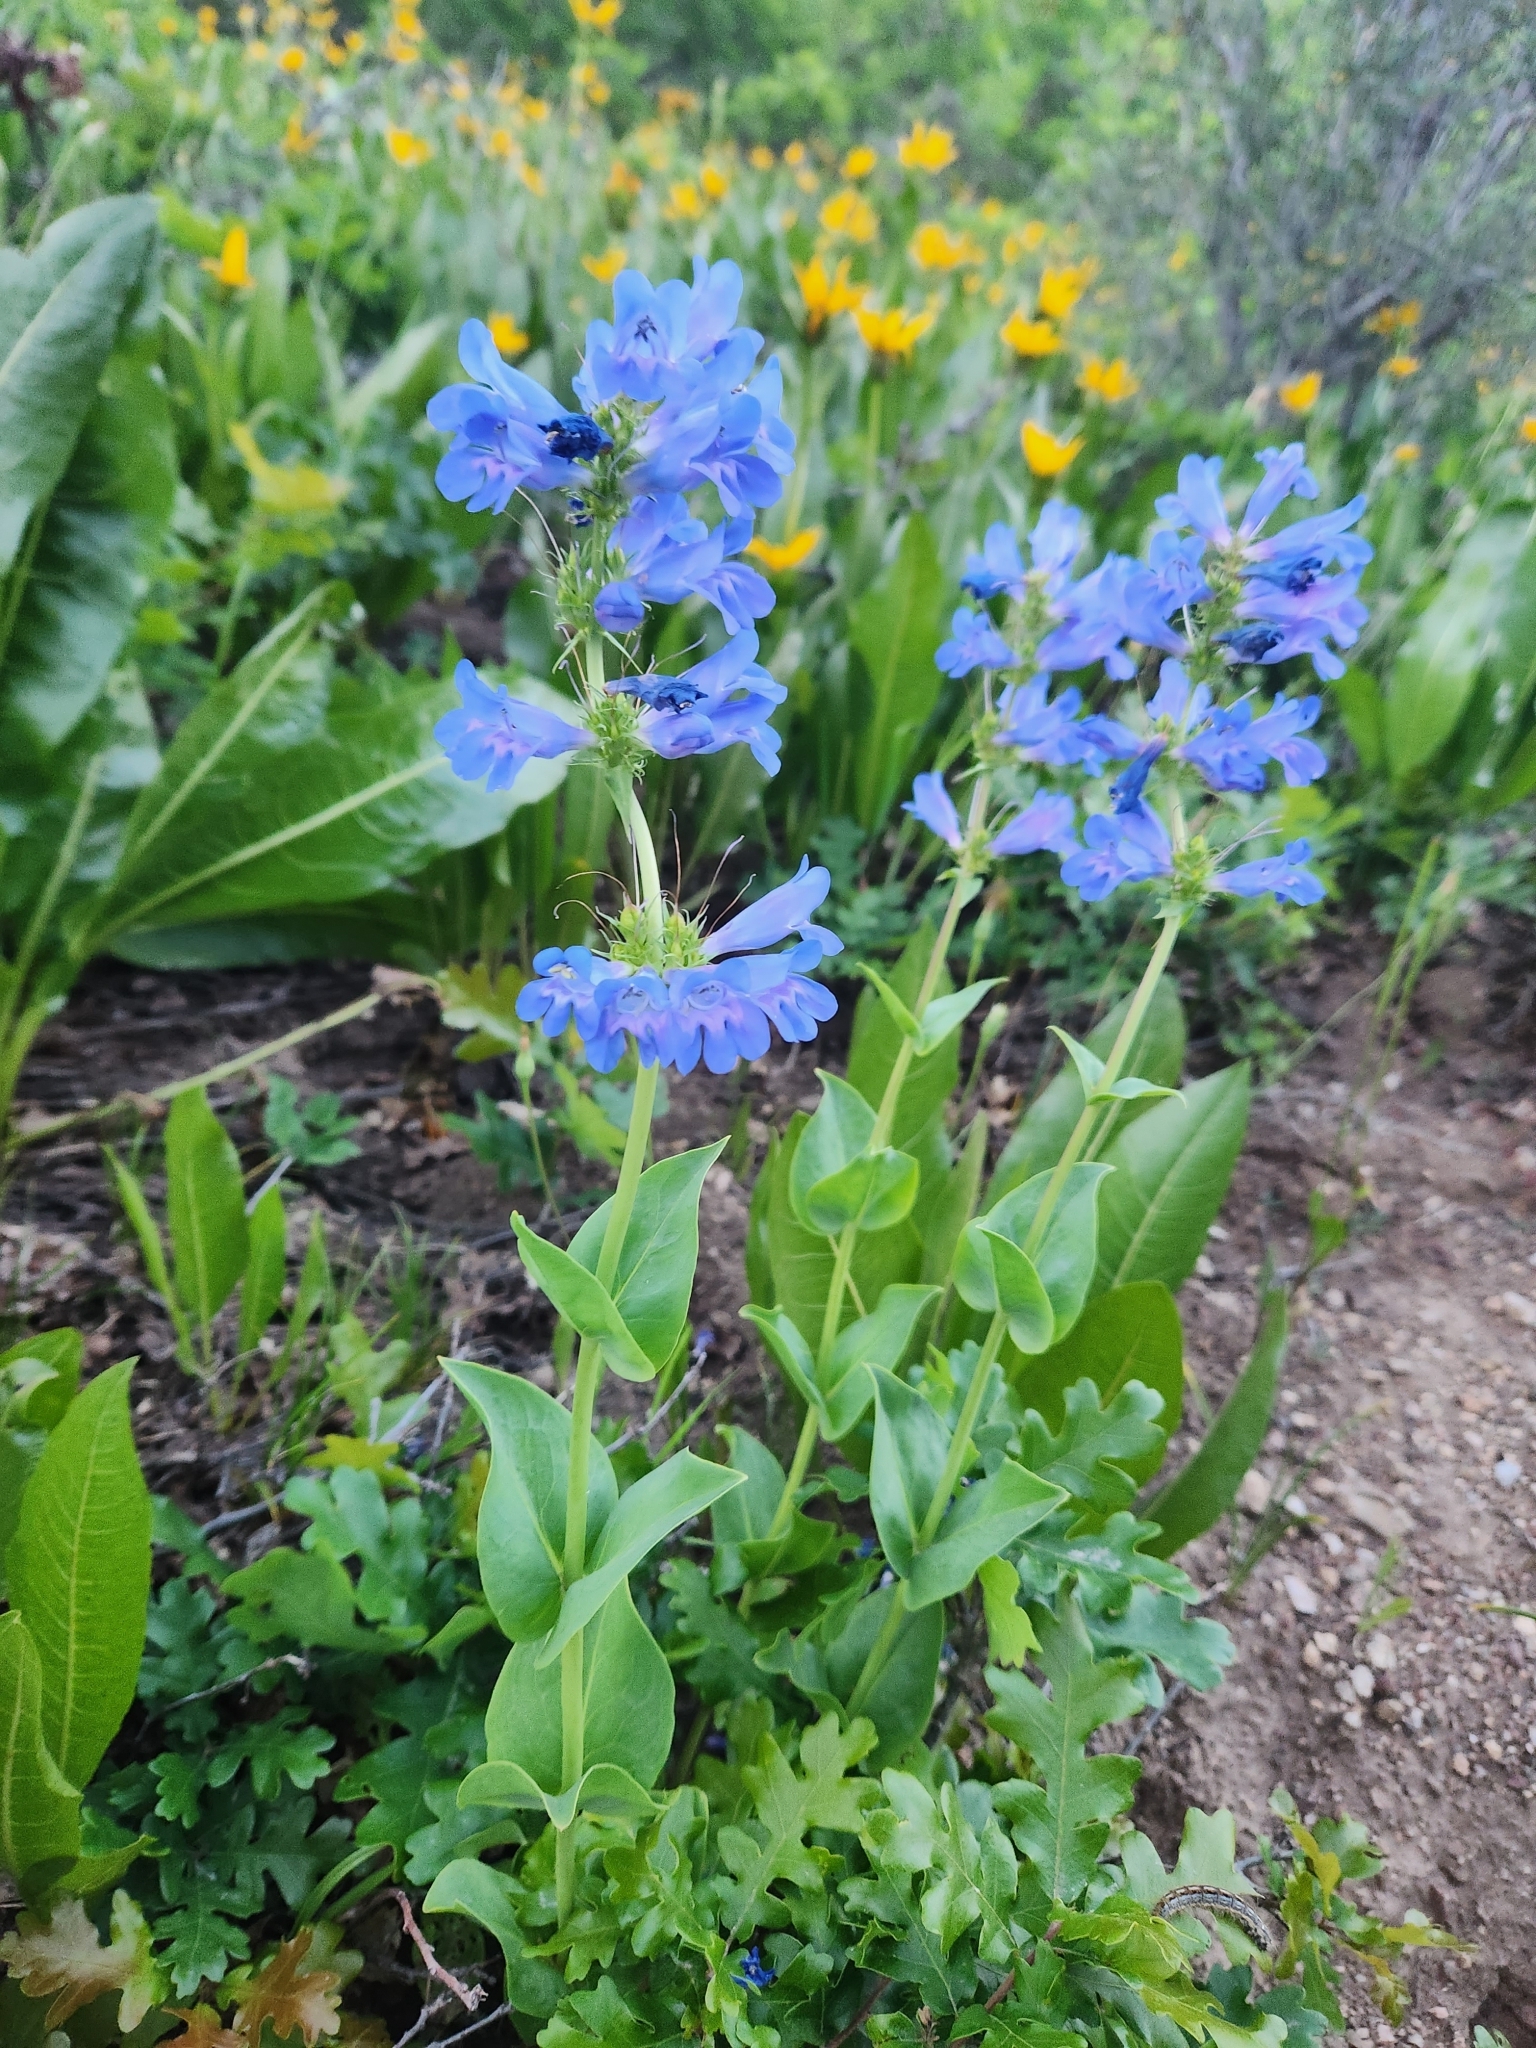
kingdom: Plantae
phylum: Tracheophyta
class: Magnoliopsida
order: Lamiales
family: Plantaginaceae
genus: Penstemon
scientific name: Penstemon cyananthus
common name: Wasatch penstemon
